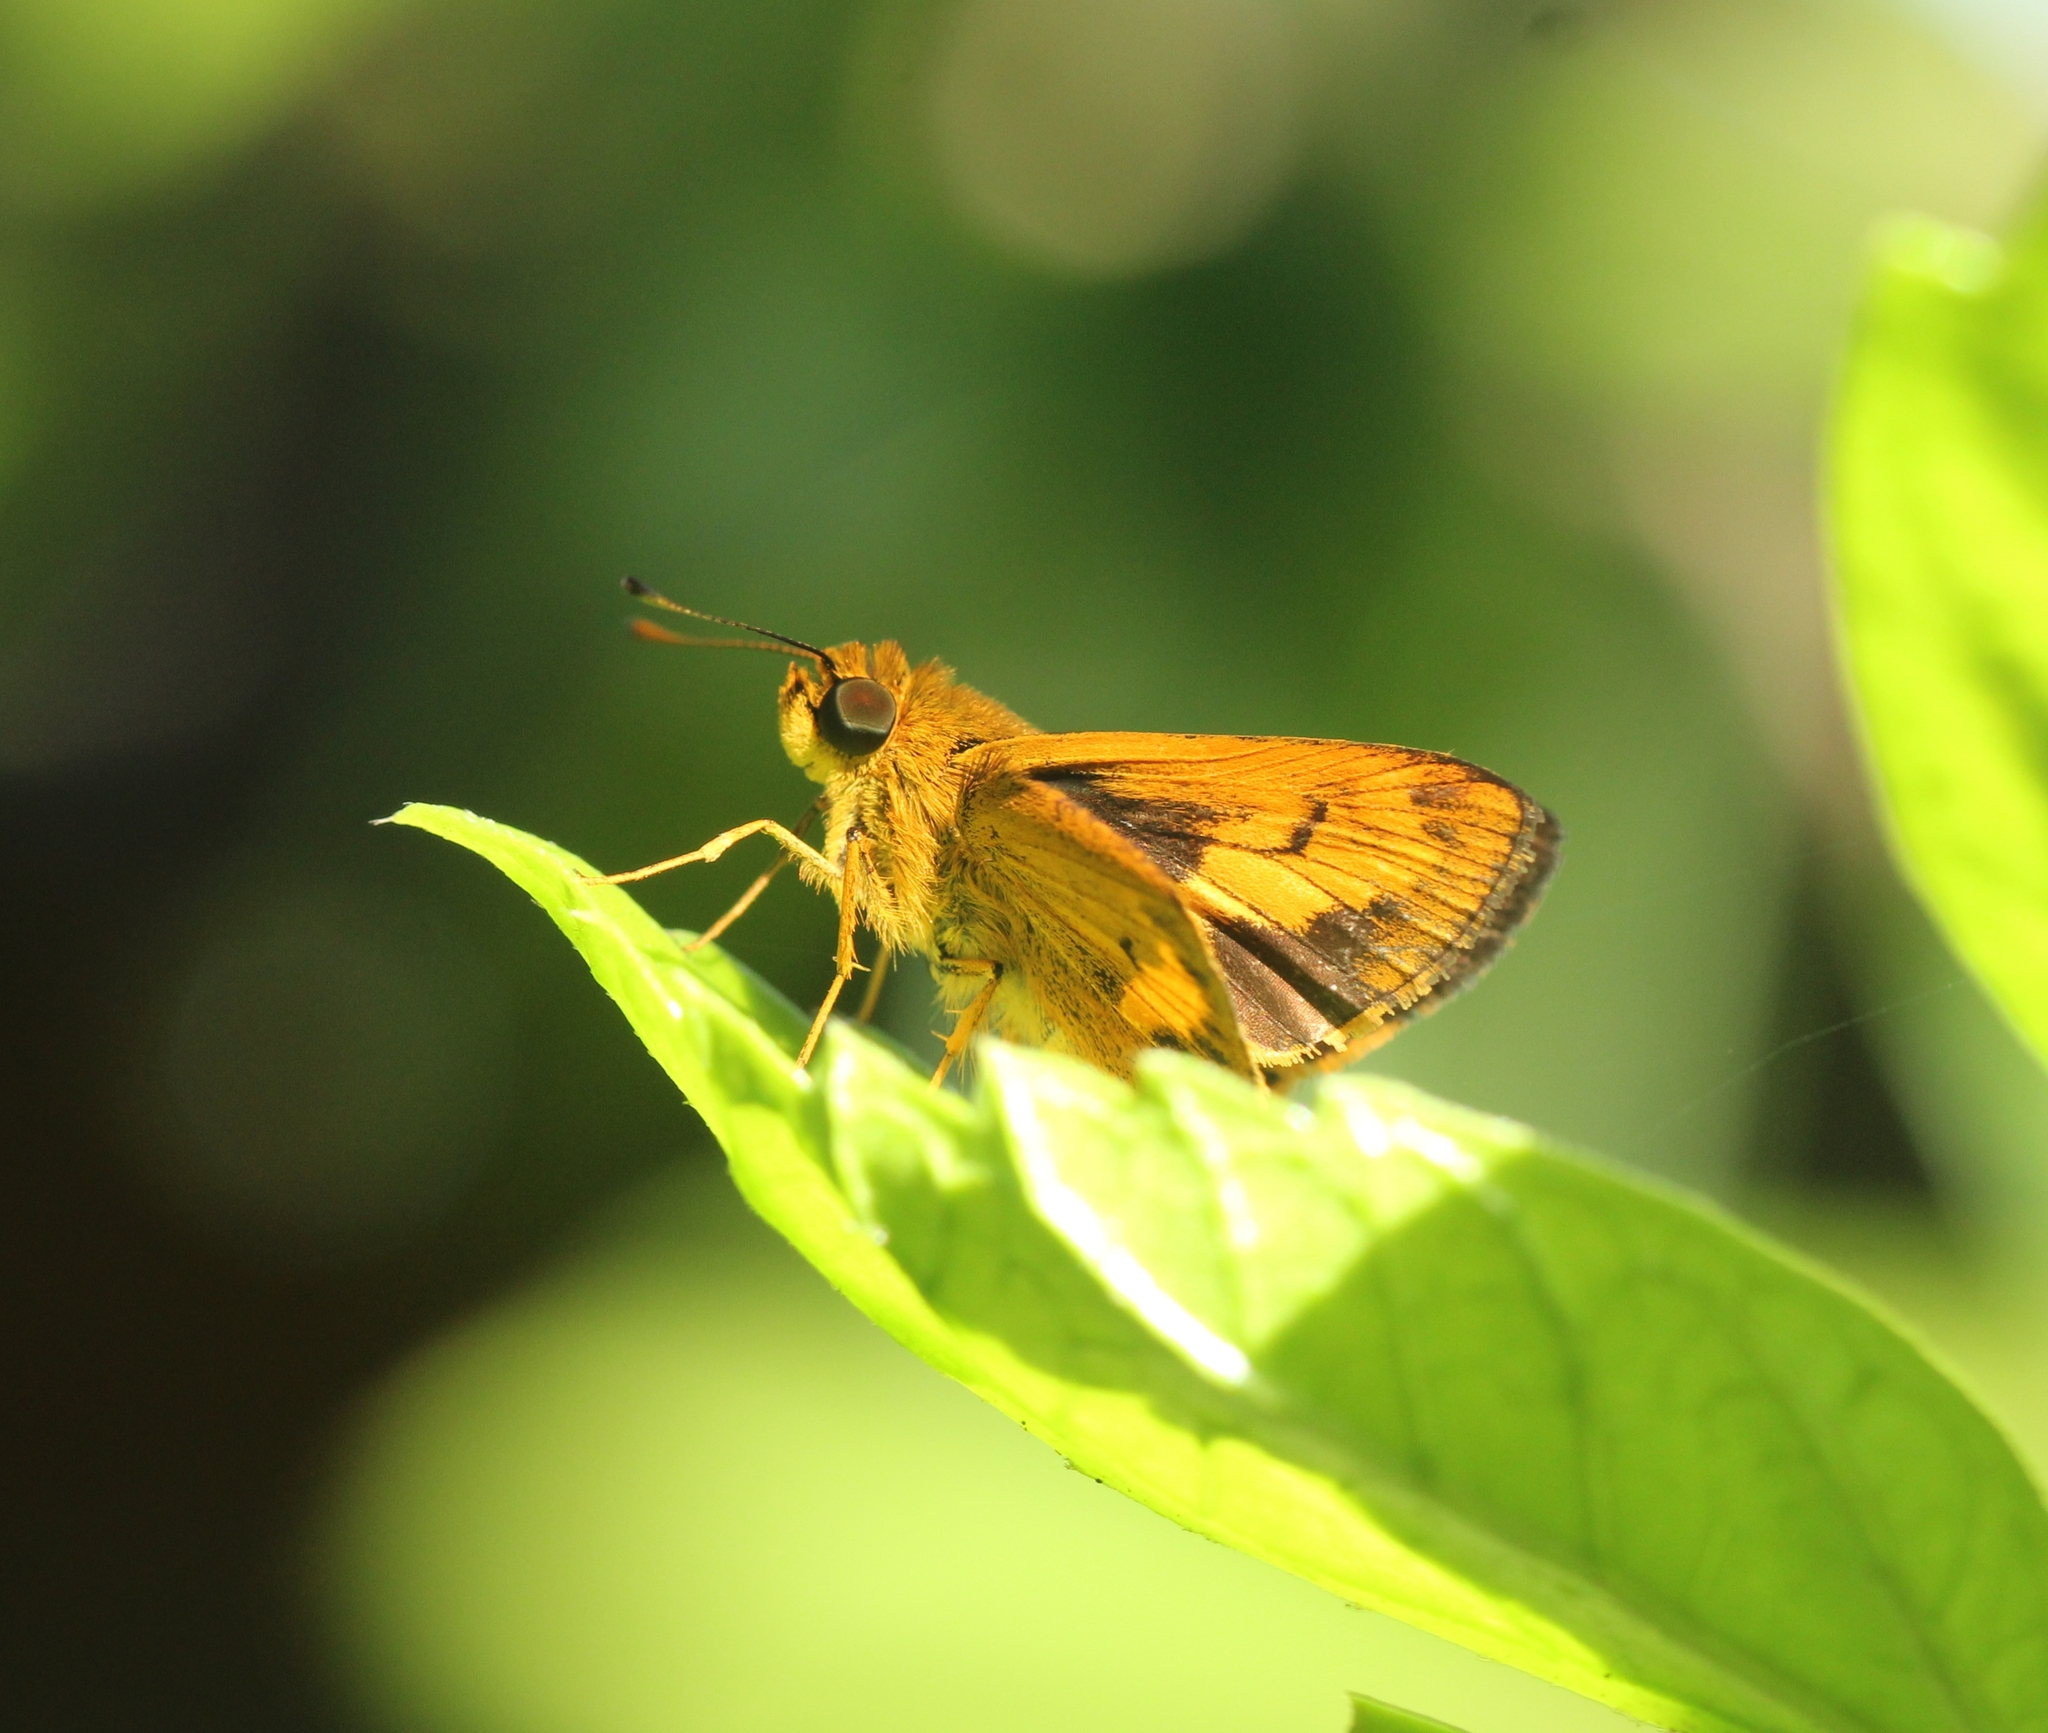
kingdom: Animalia
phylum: Arthropoda
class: Insecta
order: Lepidoptera
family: Hesperiidae
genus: Oriens
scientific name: Oriens goloides
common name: Smaller dartlet
